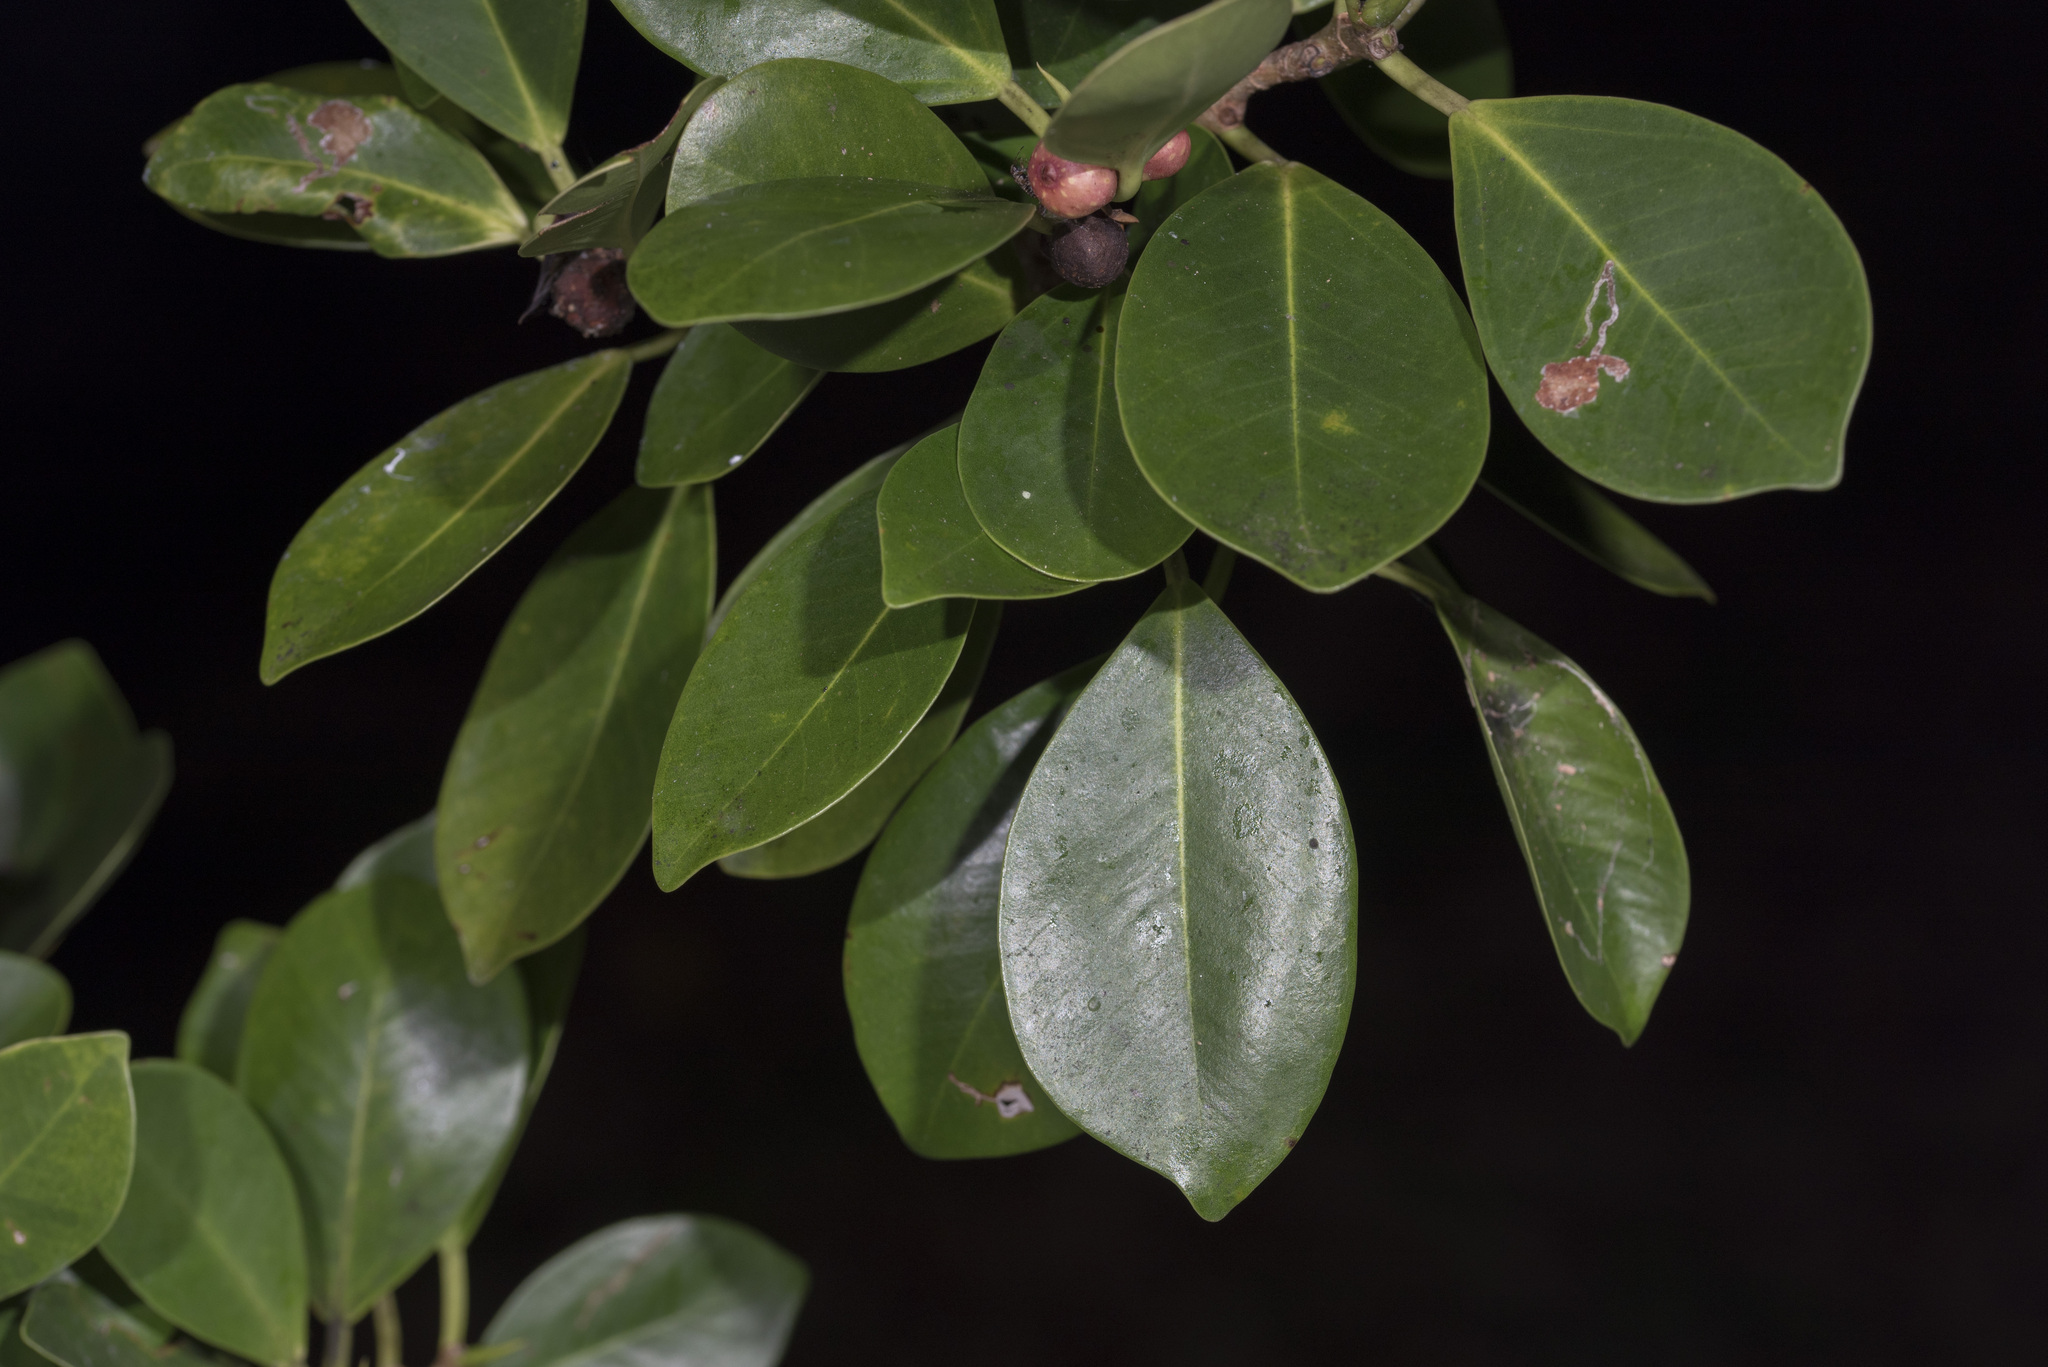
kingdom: Plantae
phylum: Tracheophyta
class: Magnoliopsida
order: Rosales
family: Moraceae
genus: Ficus
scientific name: Ficus microcarpa
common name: Chinese banyan
